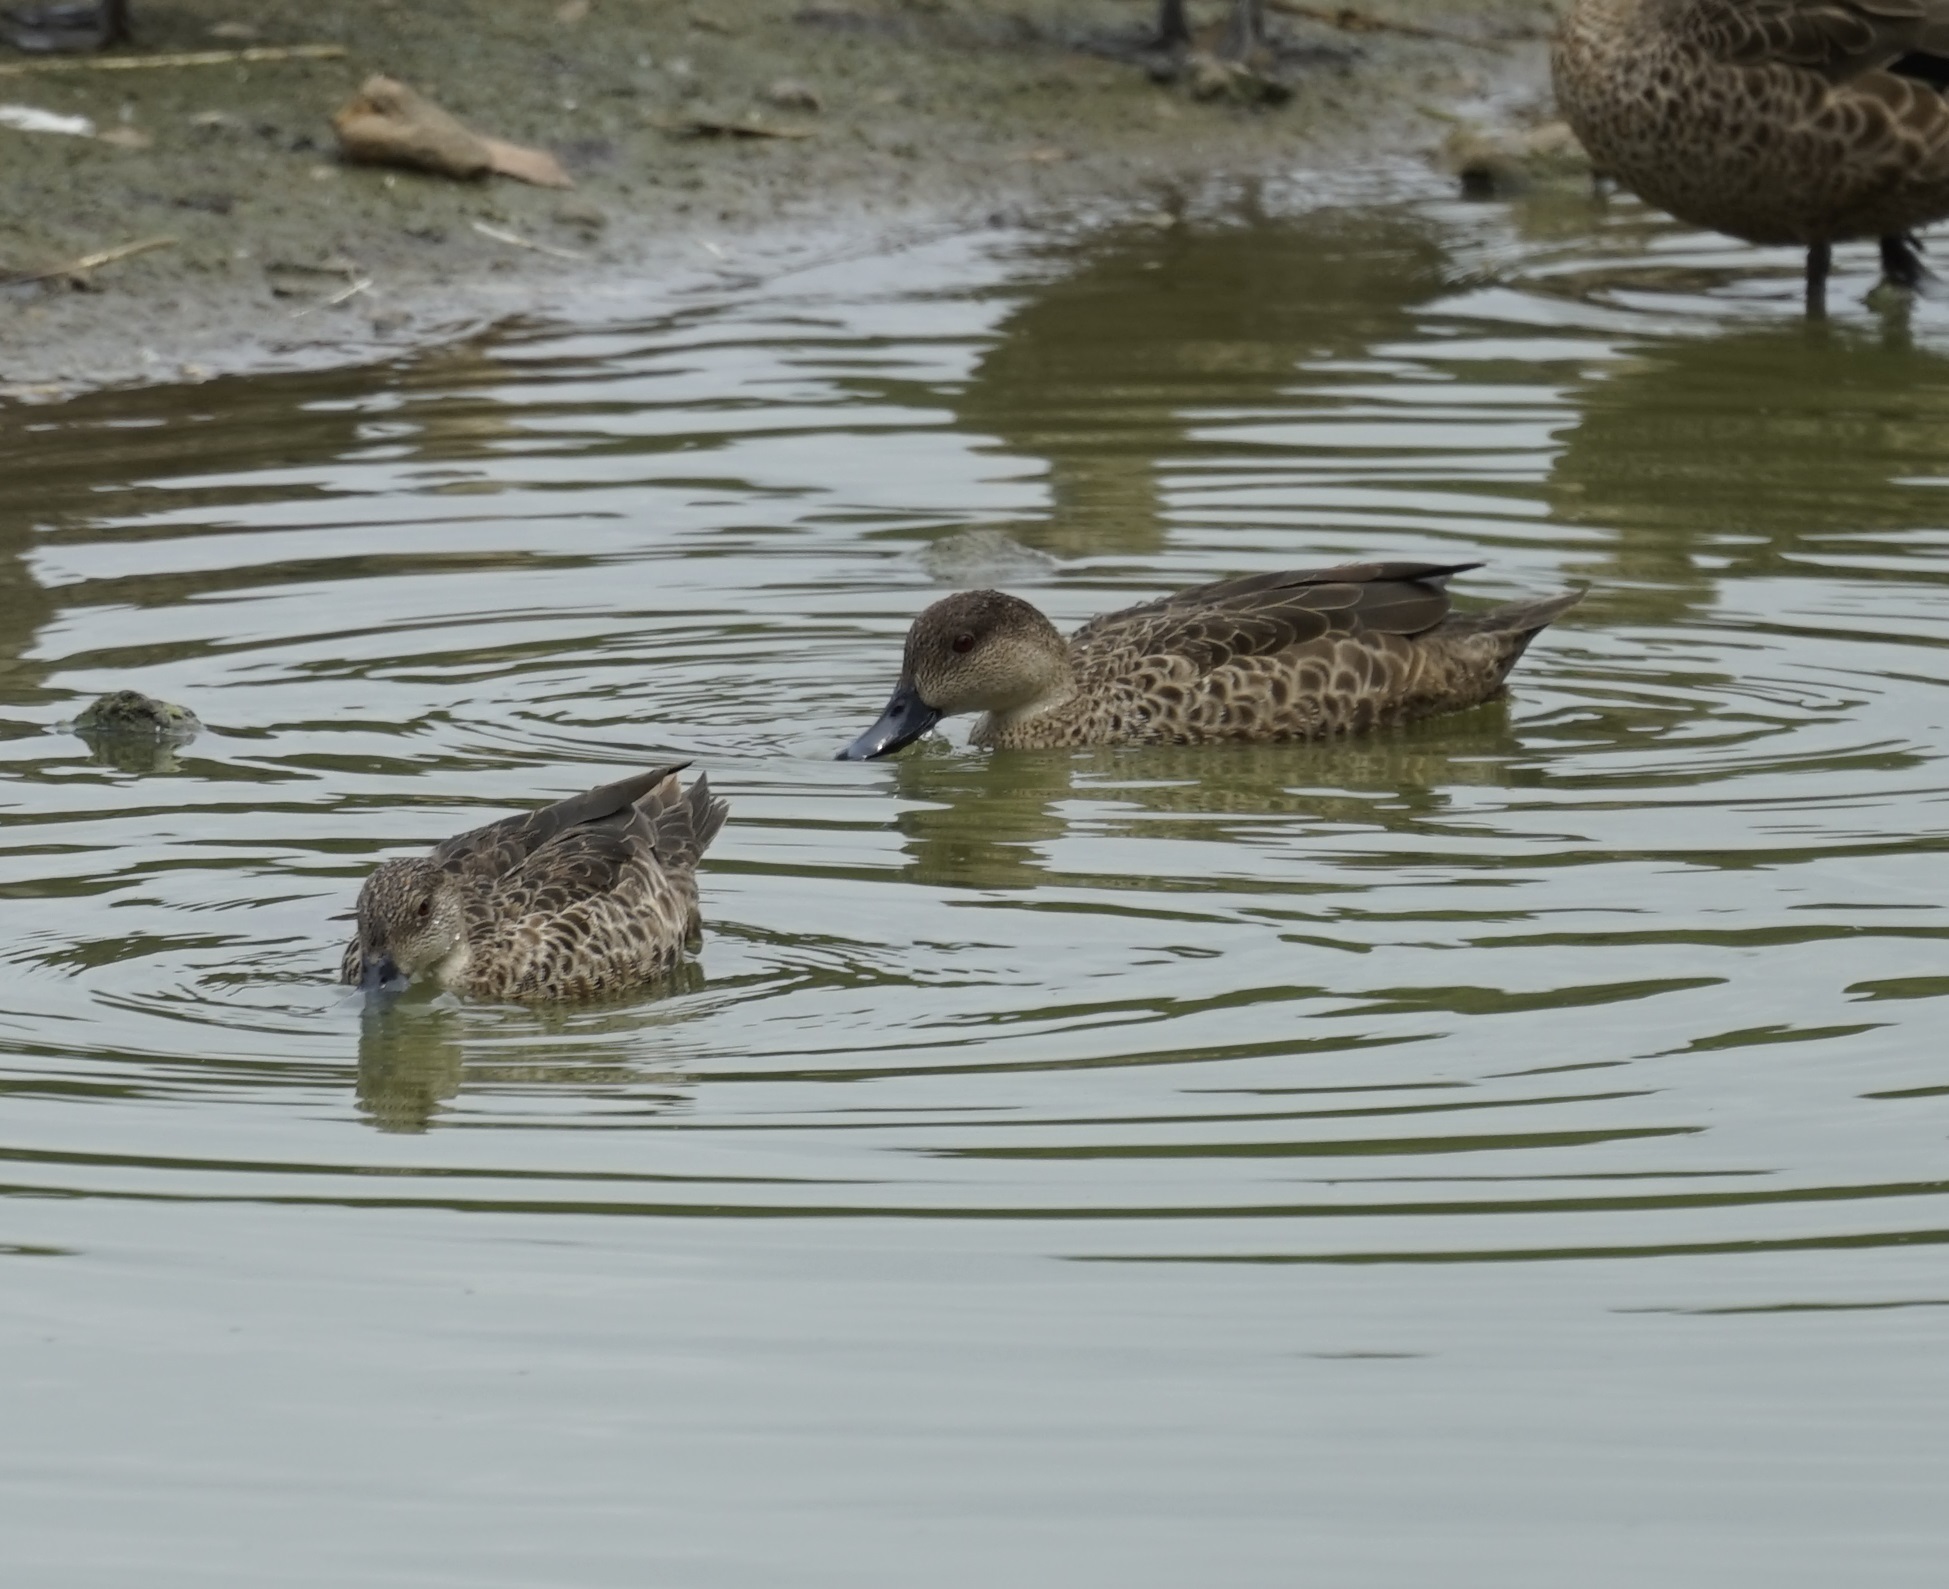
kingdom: Animalia
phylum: Chordata
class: Aves
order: Anseriformes
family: Anatidae
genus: Anas
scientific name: Anas gracilis
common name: Grey teal
